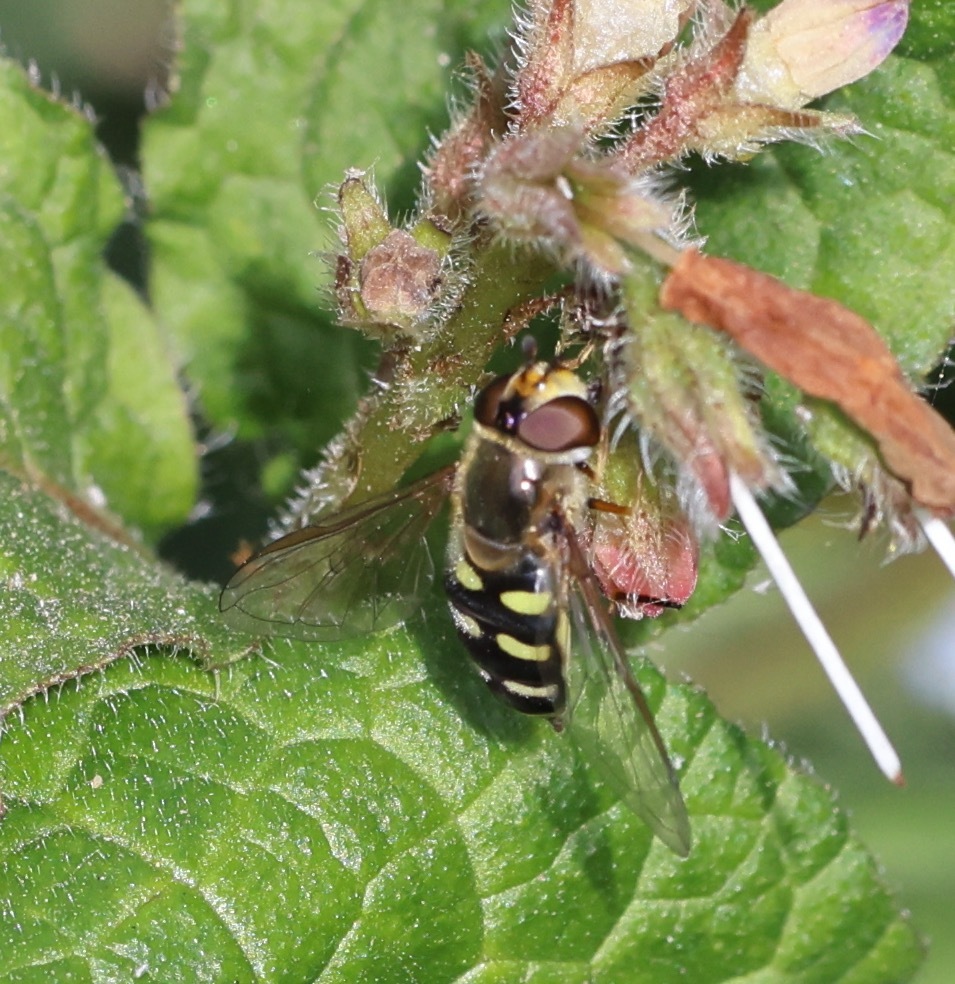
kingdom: Animalia
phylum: Arthropoda
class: Insecta
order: Diptera
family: Syrphidae
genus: Eupeodes
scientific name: Eupeodes luniger
